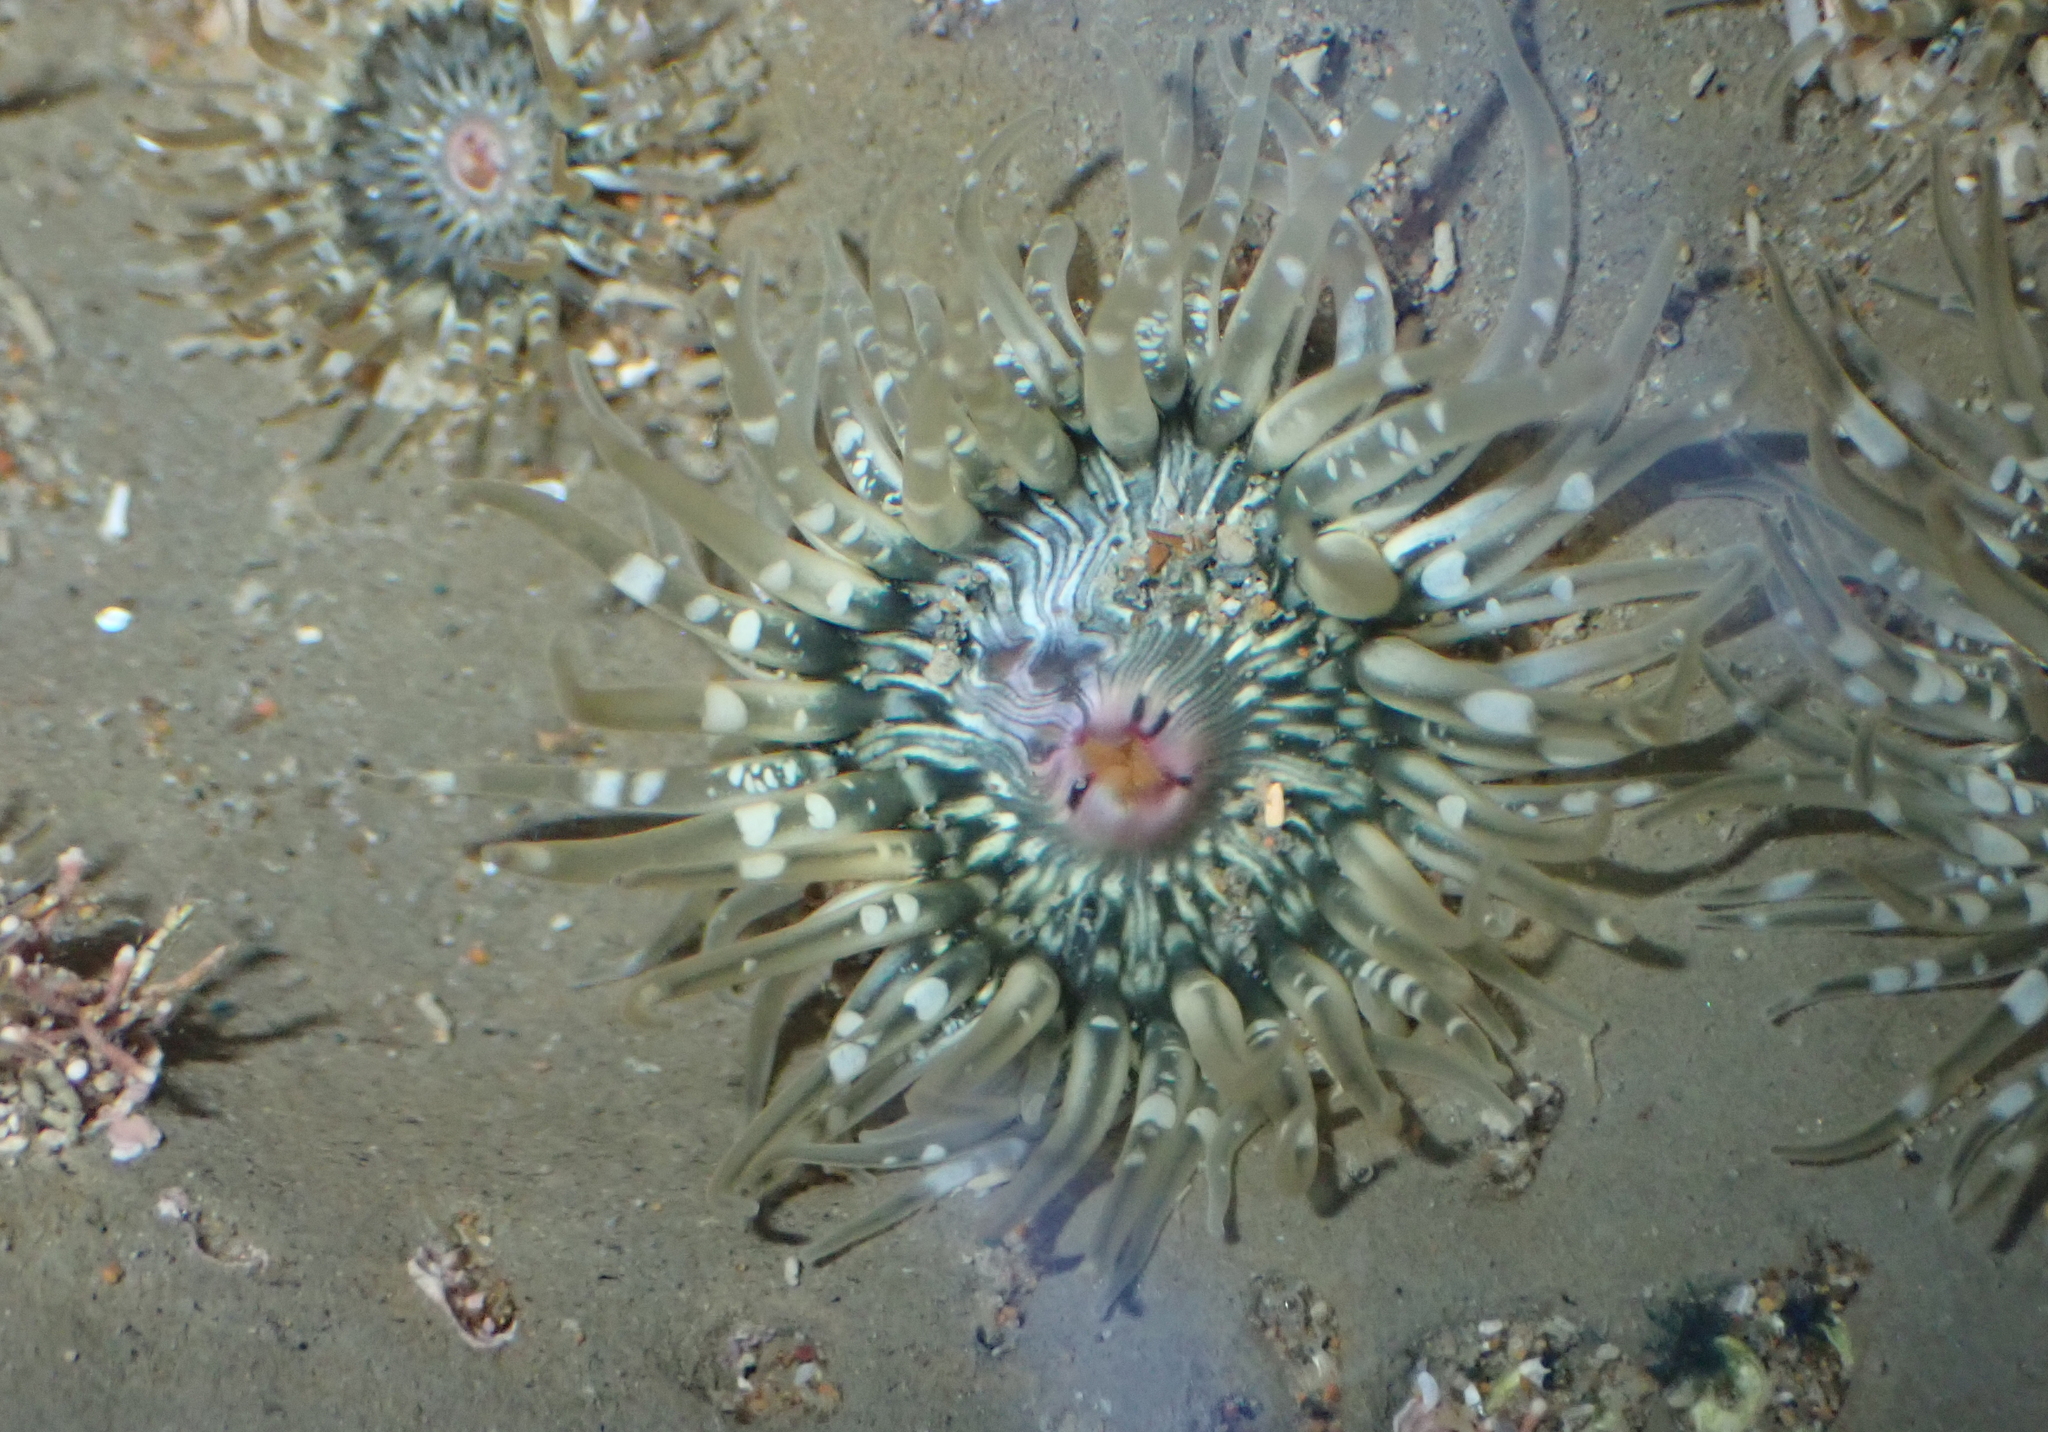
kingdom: Animalia
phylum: Cnidaria
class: Anthozoa
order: Actiniaria
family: Actiniidae
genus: Anthopleura
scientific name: Anthopleura minima
